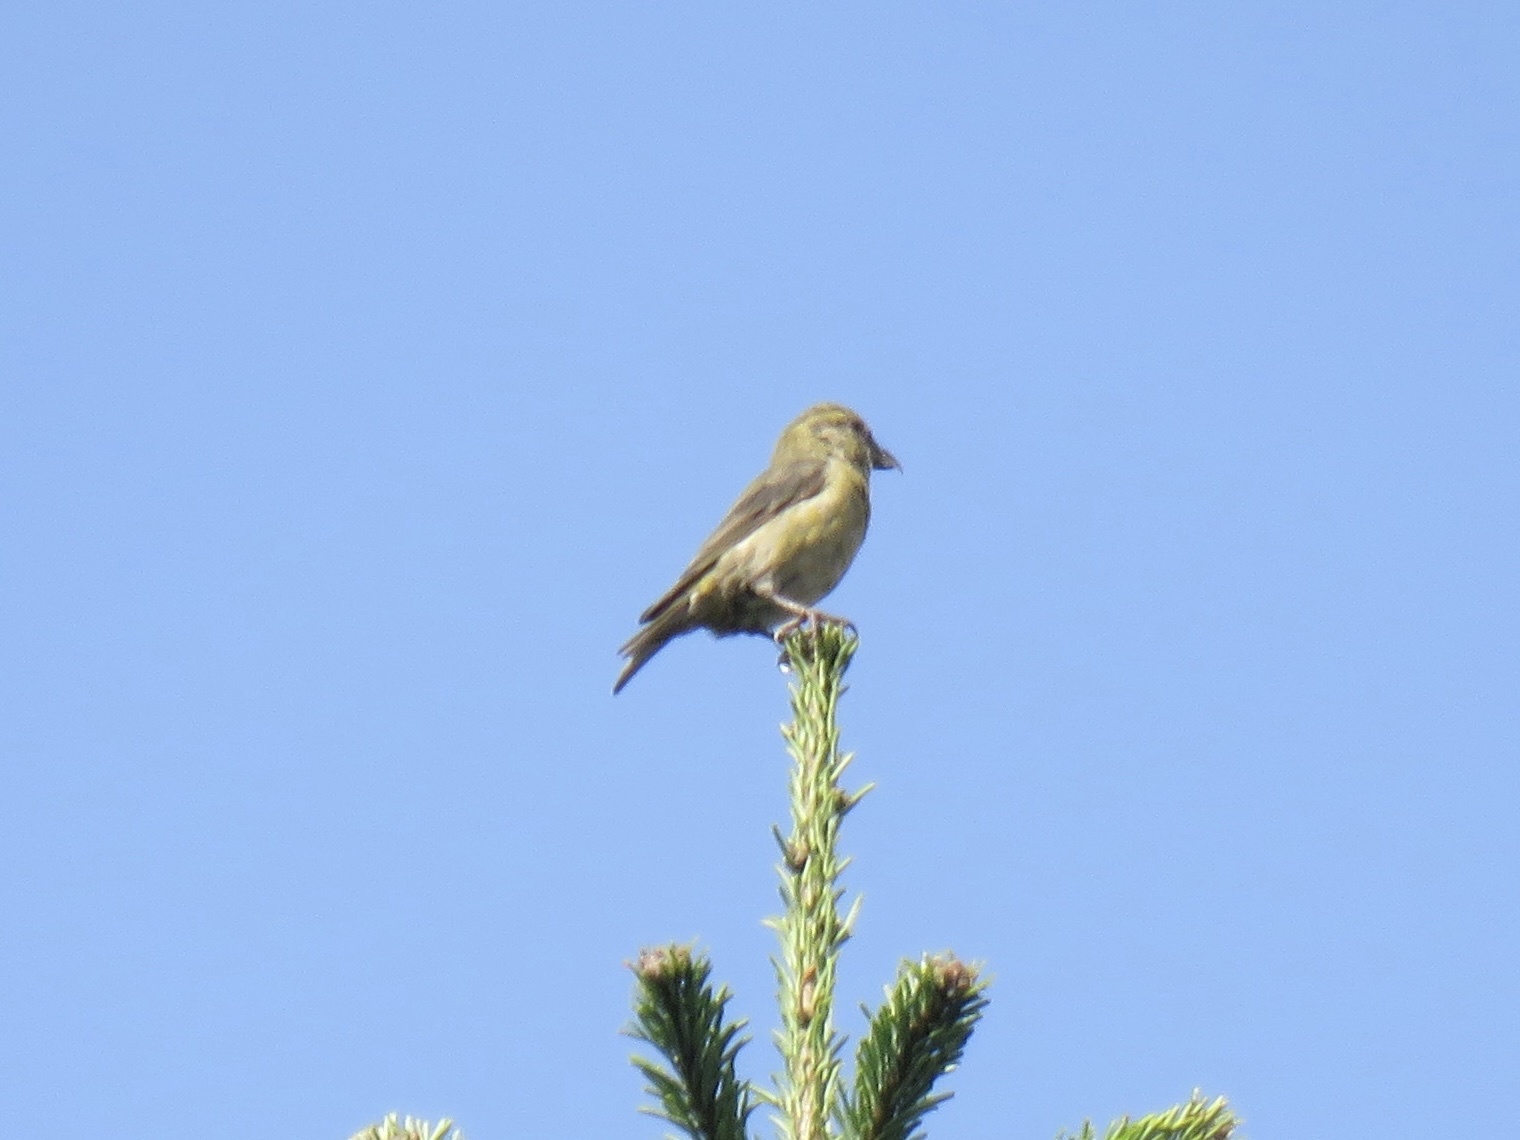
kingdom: Animalia
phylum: Chordata
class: Aves
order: Passeriformes
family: Fringillidae
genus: Loxia
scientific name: Loxia curvirostra
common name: Red crossbill
